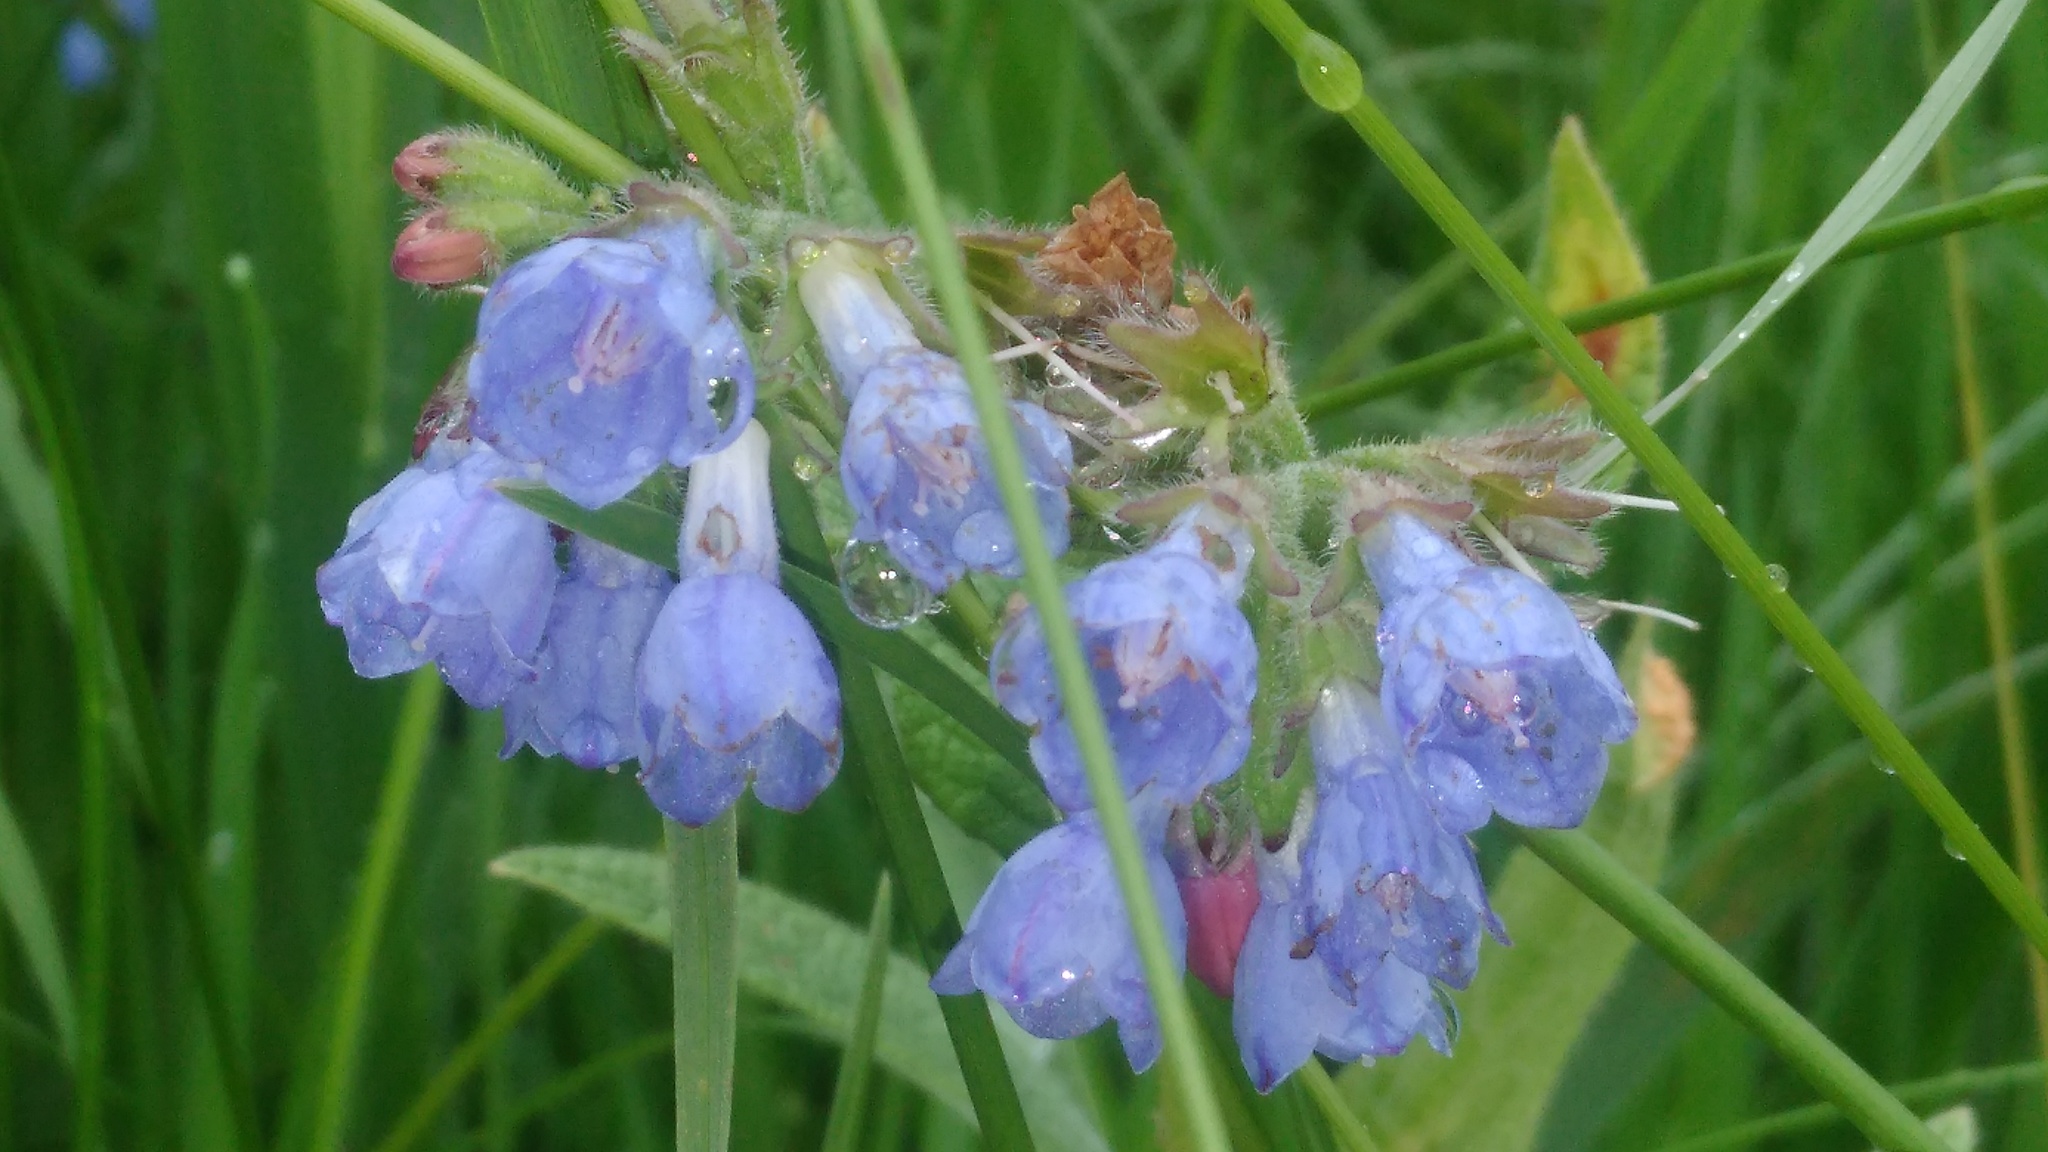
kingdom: Plantae
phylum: Tracheophyta
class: Magnoliopsida
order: Boraginales
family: Boraginaceae
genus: Symphytum
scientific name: Symphytum caucasicum
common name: Caucasian comfrey
